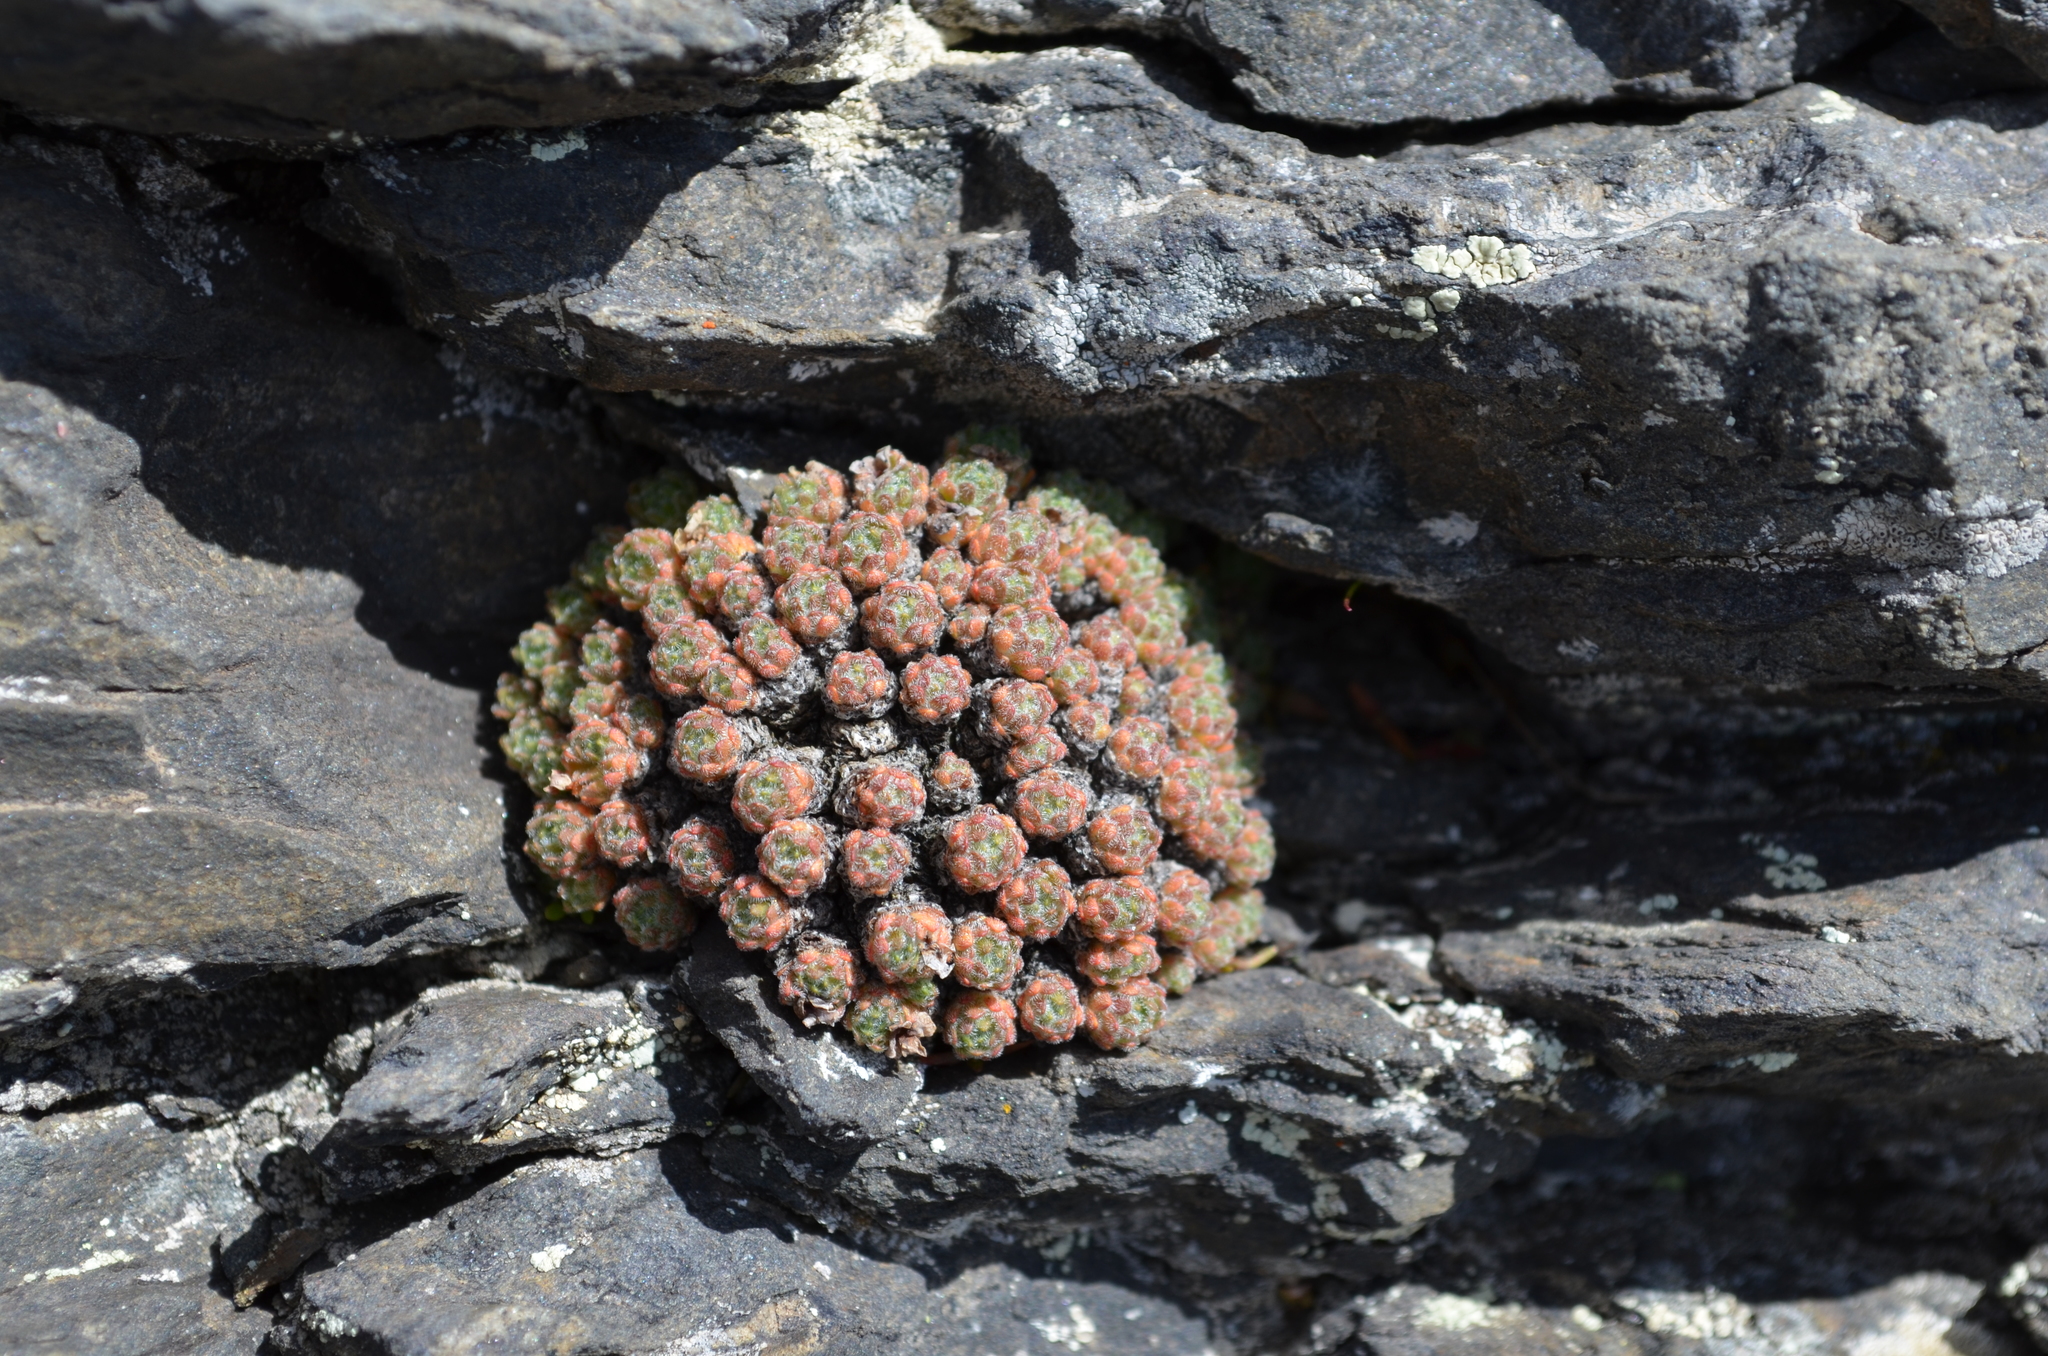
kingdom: Plantae
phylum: Tracheophyta
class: Magnoliopsida
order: Ericales
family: Primulaceae
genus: Androsace
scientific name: Androsace helvetica
